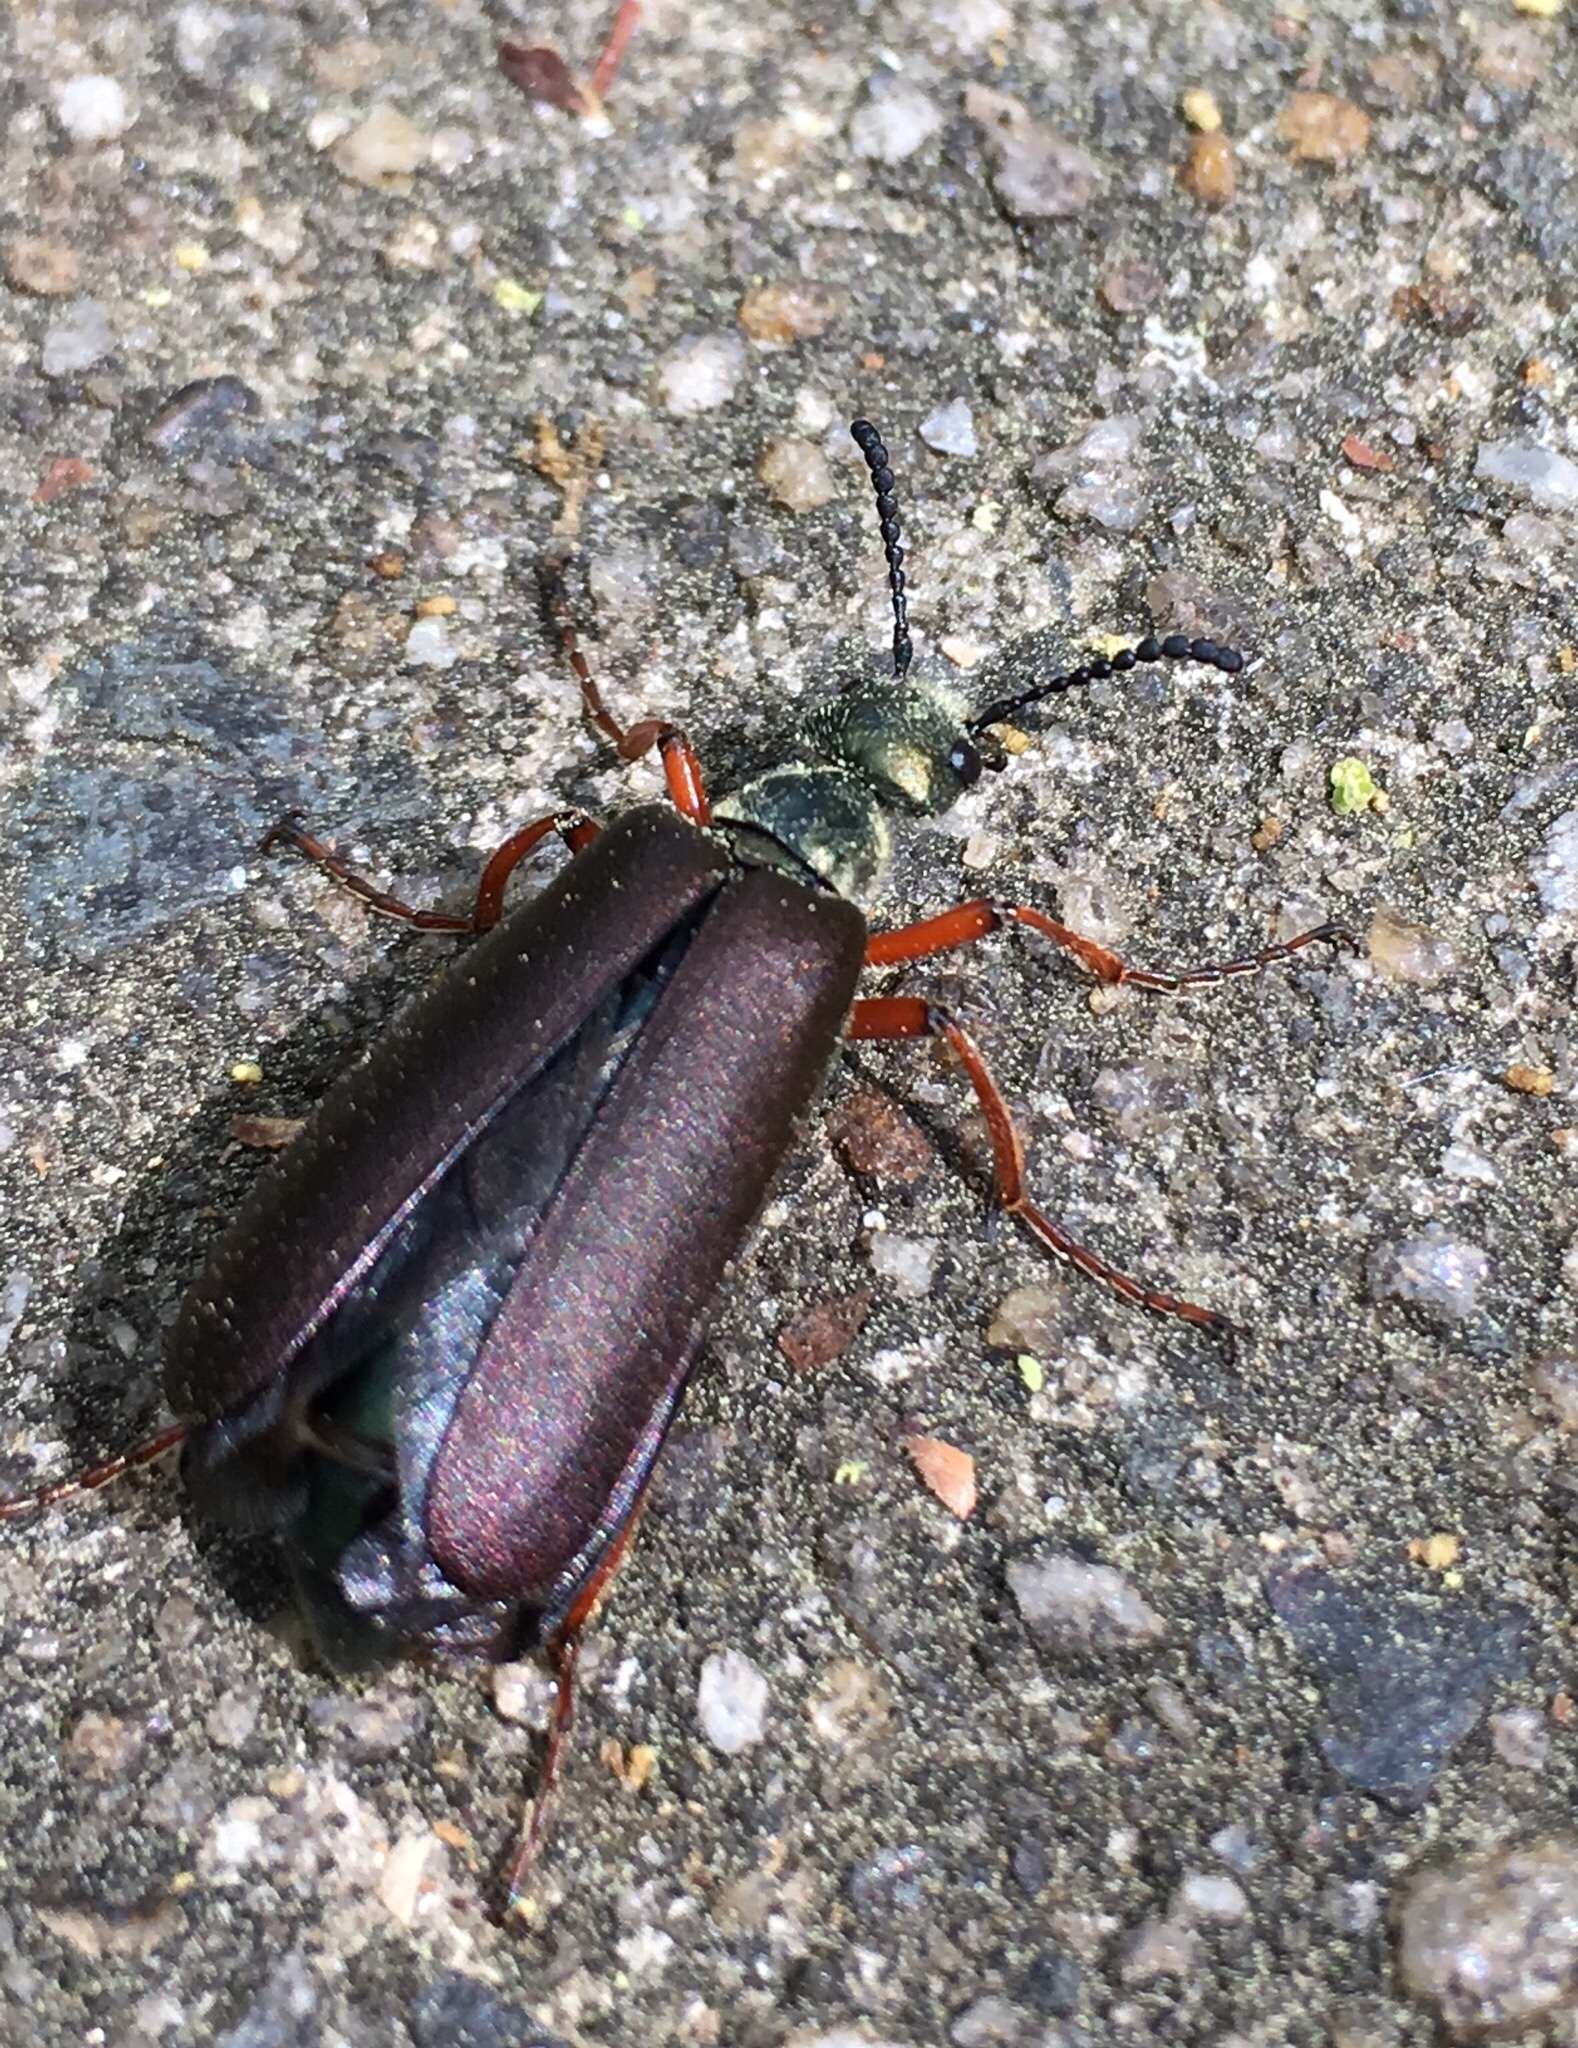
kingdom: Animalia
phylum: Arthropoda
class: Insecta
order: Coleoptera
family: Meloidae
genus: Lytta
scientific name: Lytta aenea
